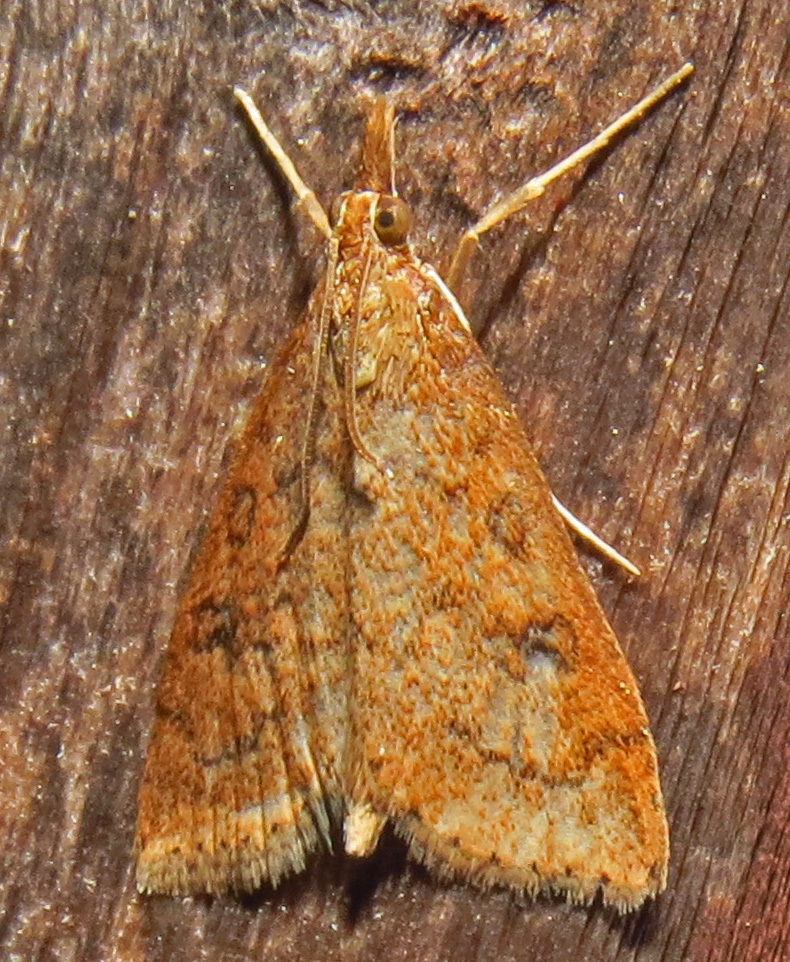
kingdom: Animalia
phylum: Arthropoda
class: Insecta
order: Lepidoptera
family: Crambidae
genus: Udea
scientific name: Udea rubigalis
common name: Celery leaftier moth
